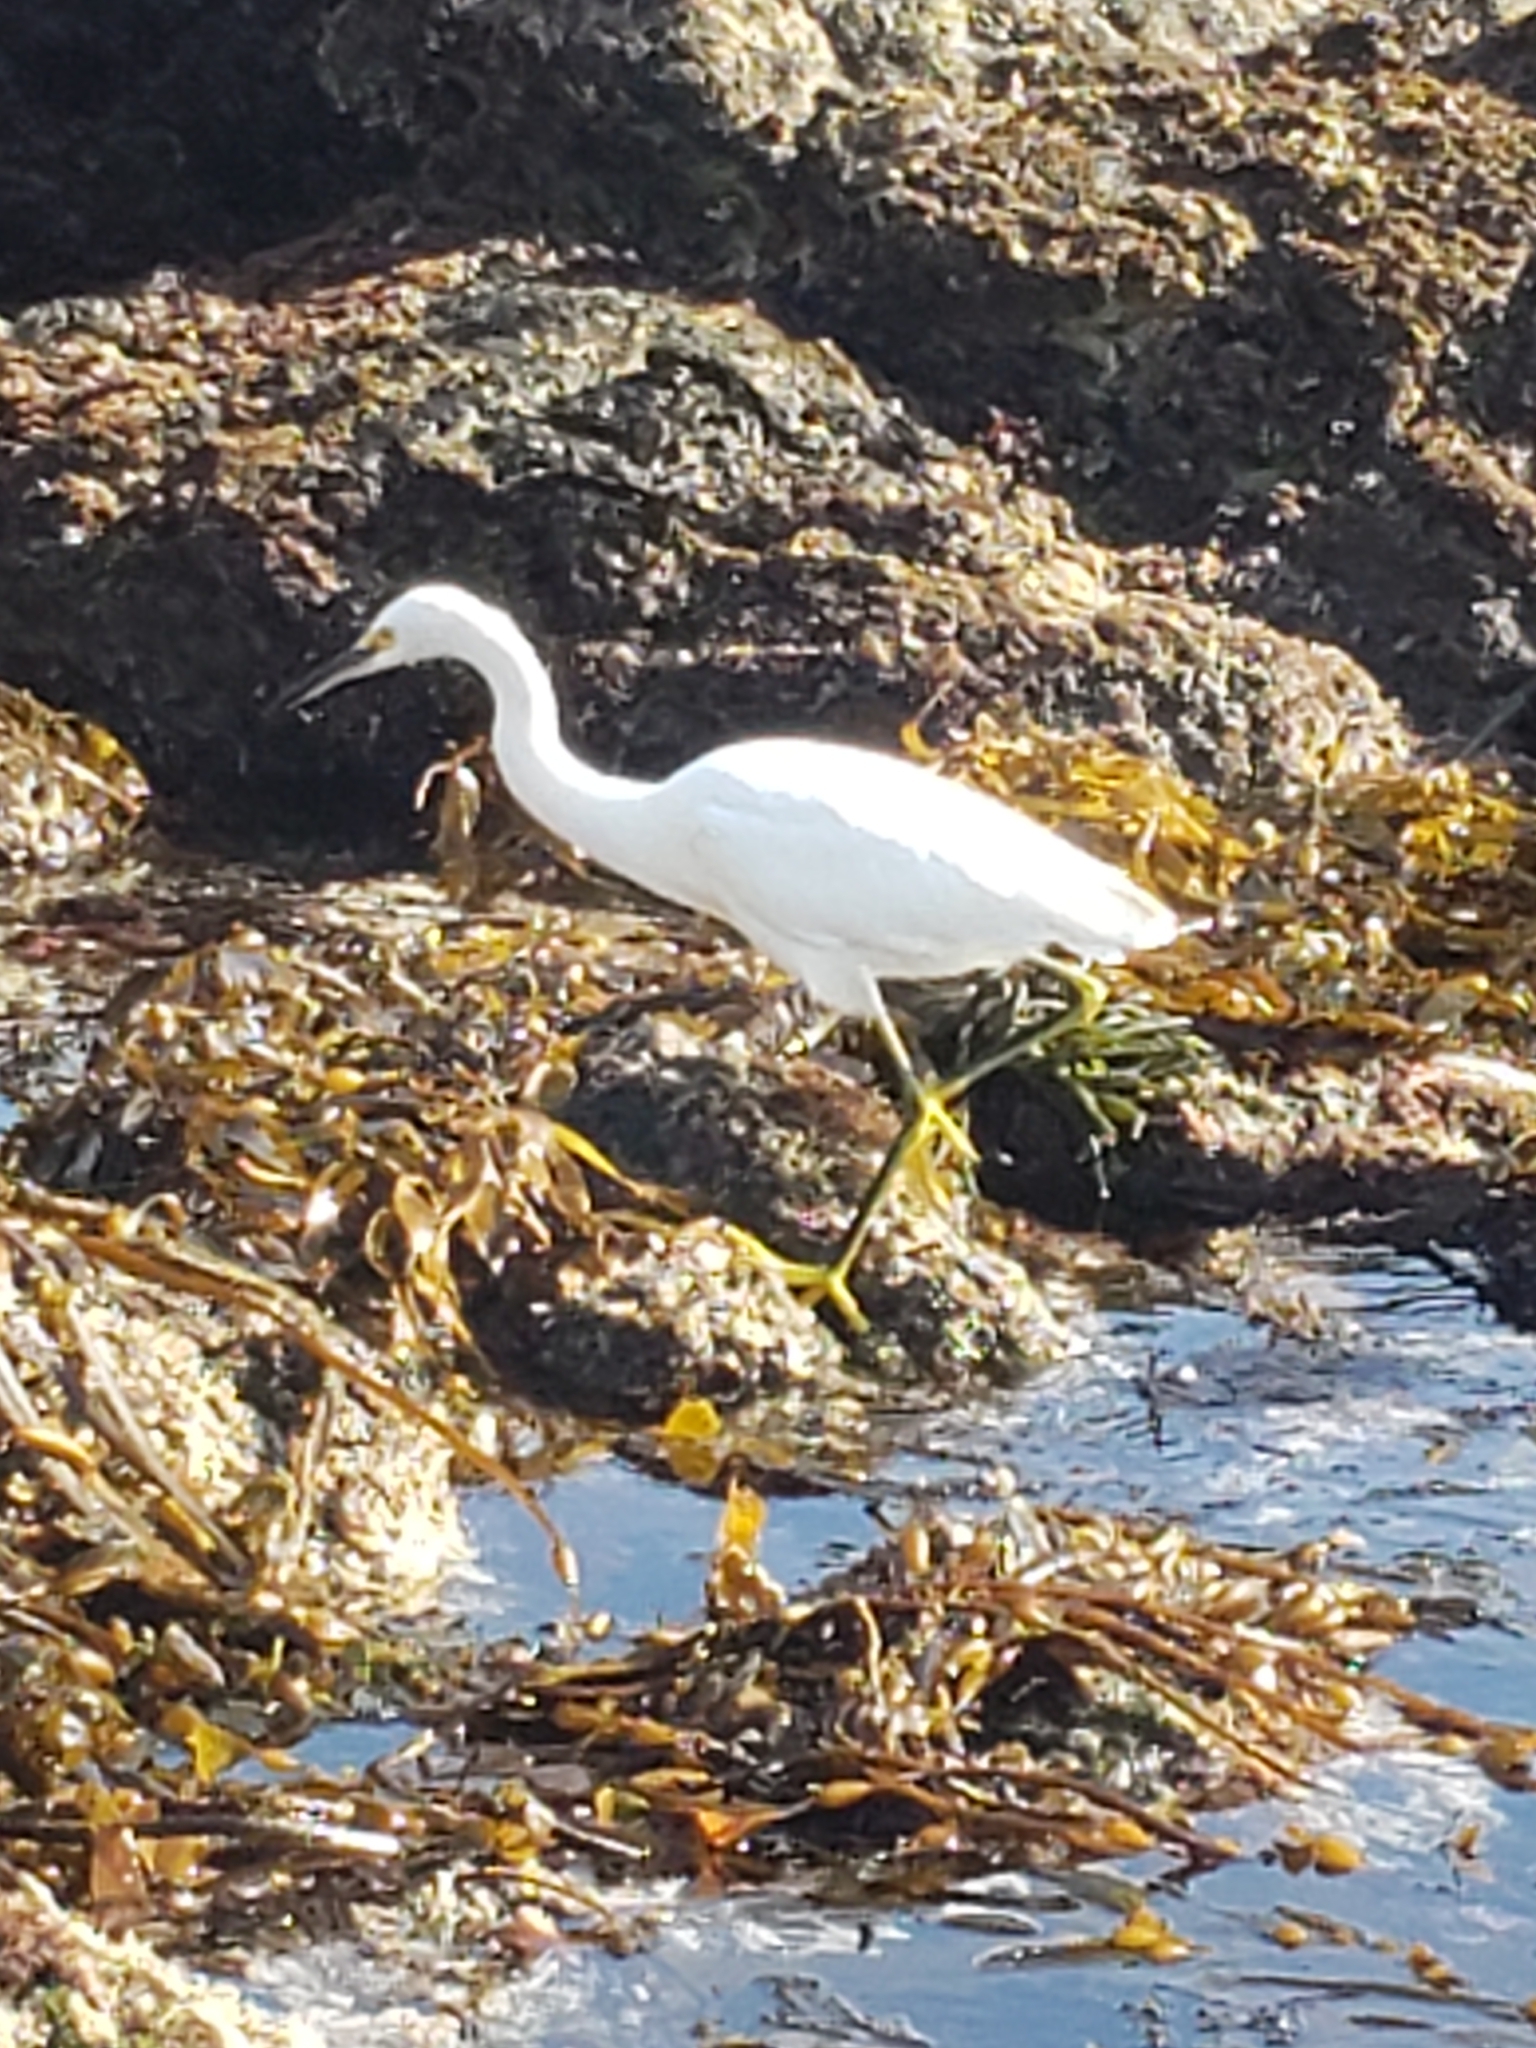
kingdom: Animalia
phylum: Chordata
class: Aves
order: Pelecaniformes
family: Ardeidae
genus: Egretta
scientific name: Egretta thula
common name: Snowy egret
